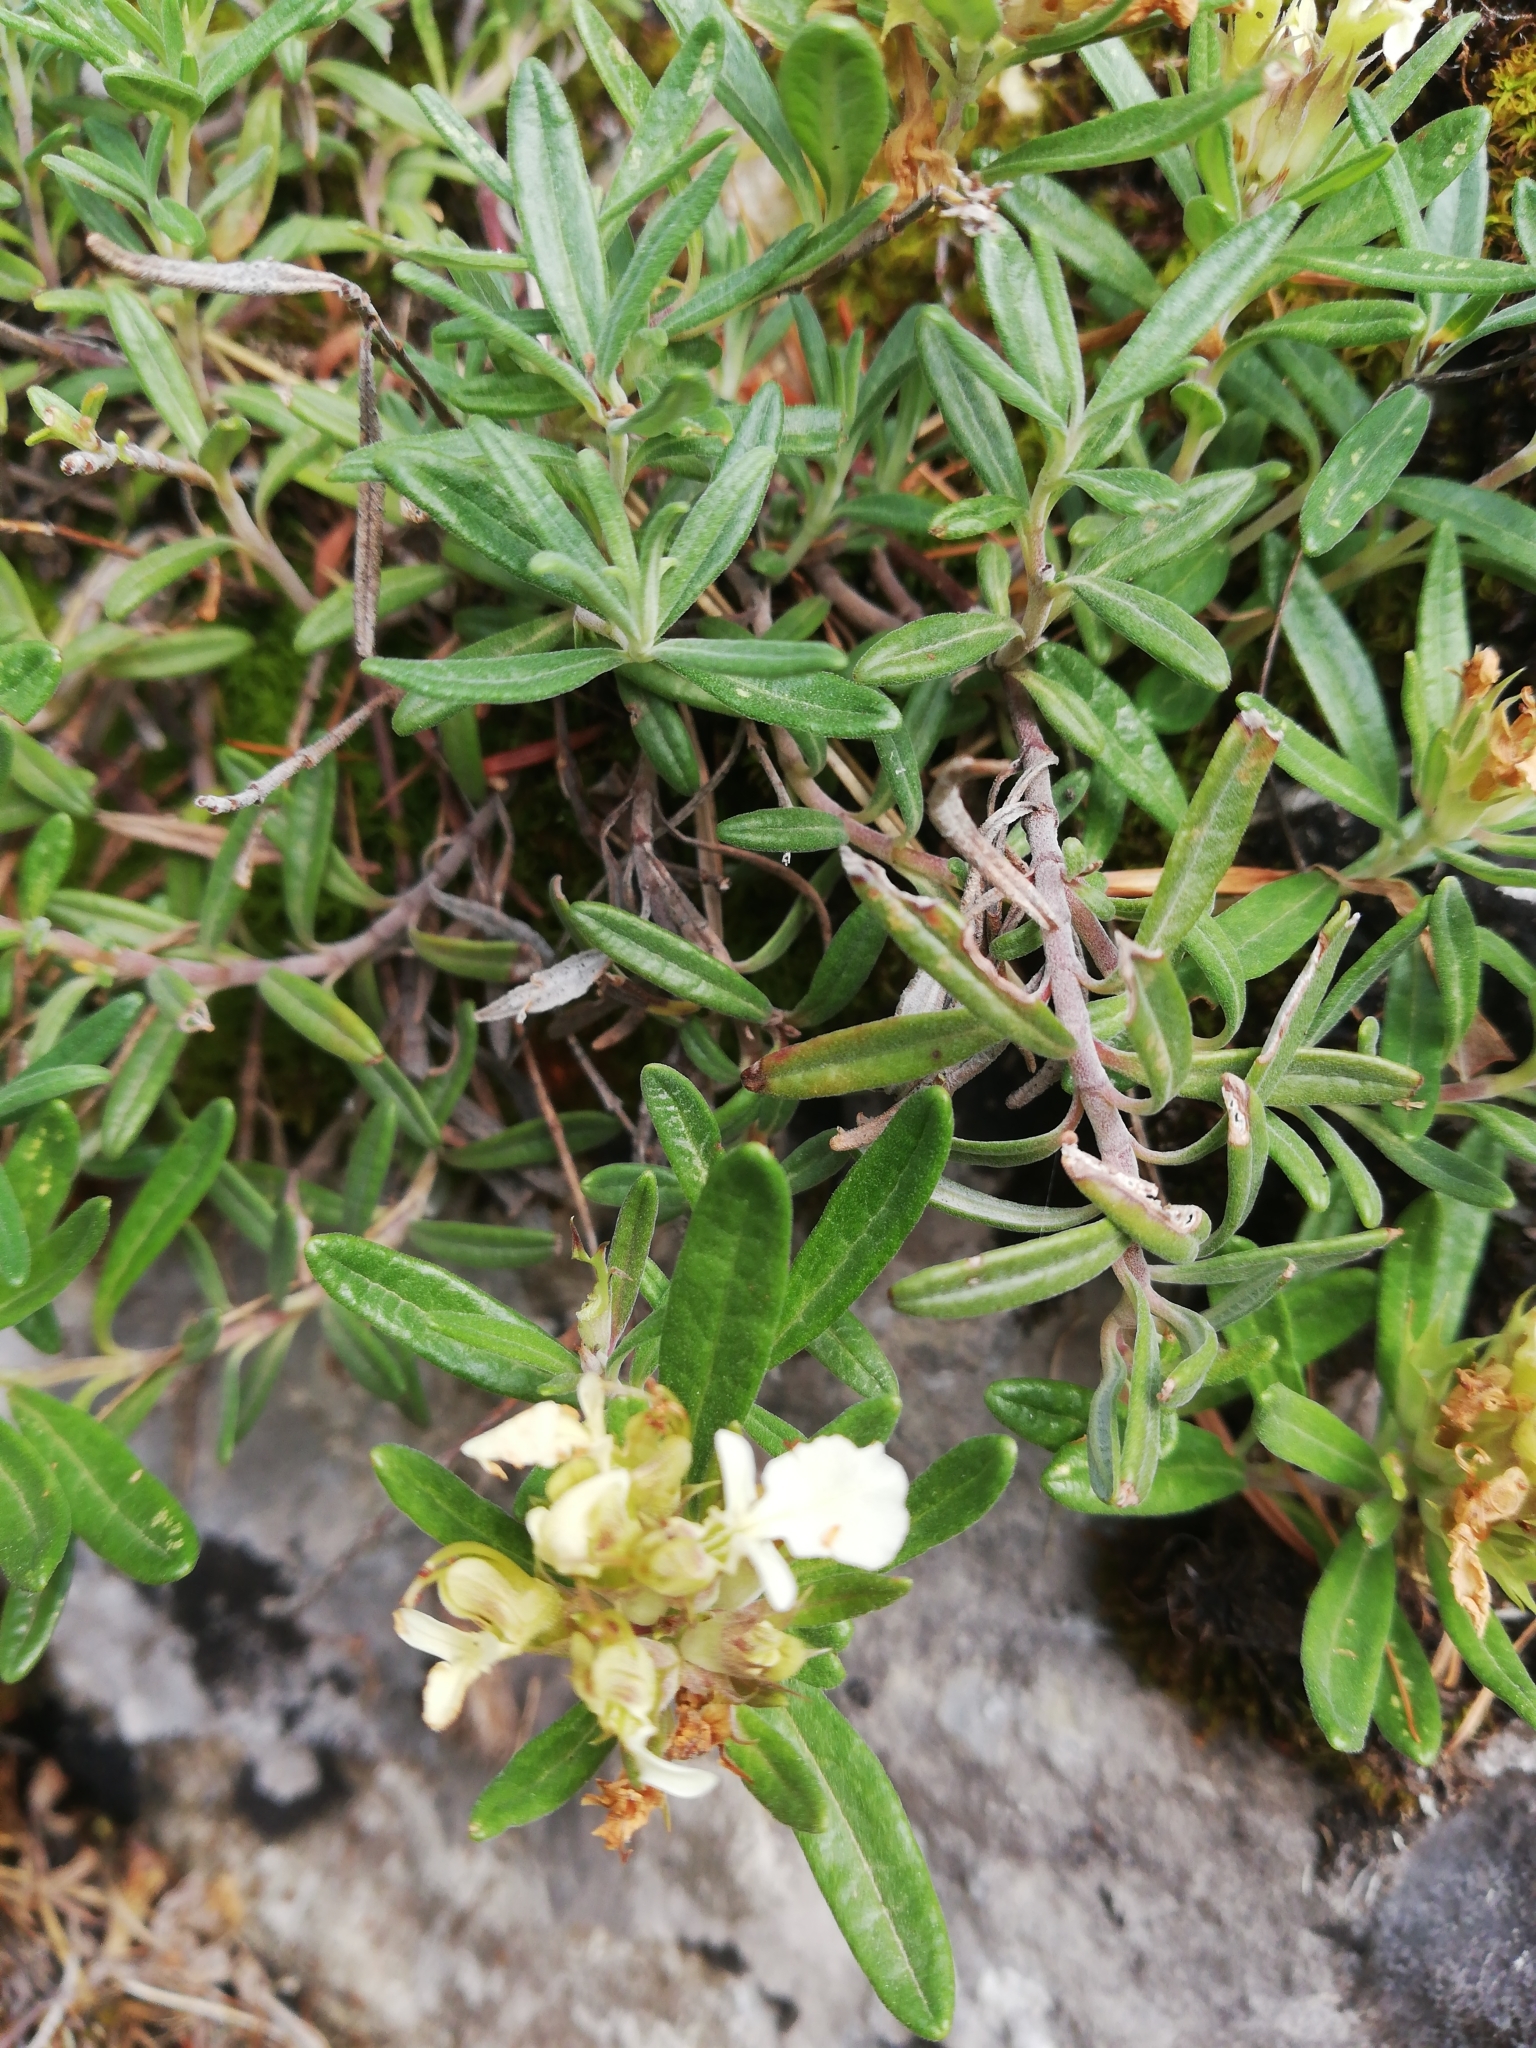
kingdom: Plantae
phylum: Tracheophyta
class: Magnoliopsida
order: Lamiales
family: Lamiaceae
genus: Teucrium
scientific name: Teucrium montanum
